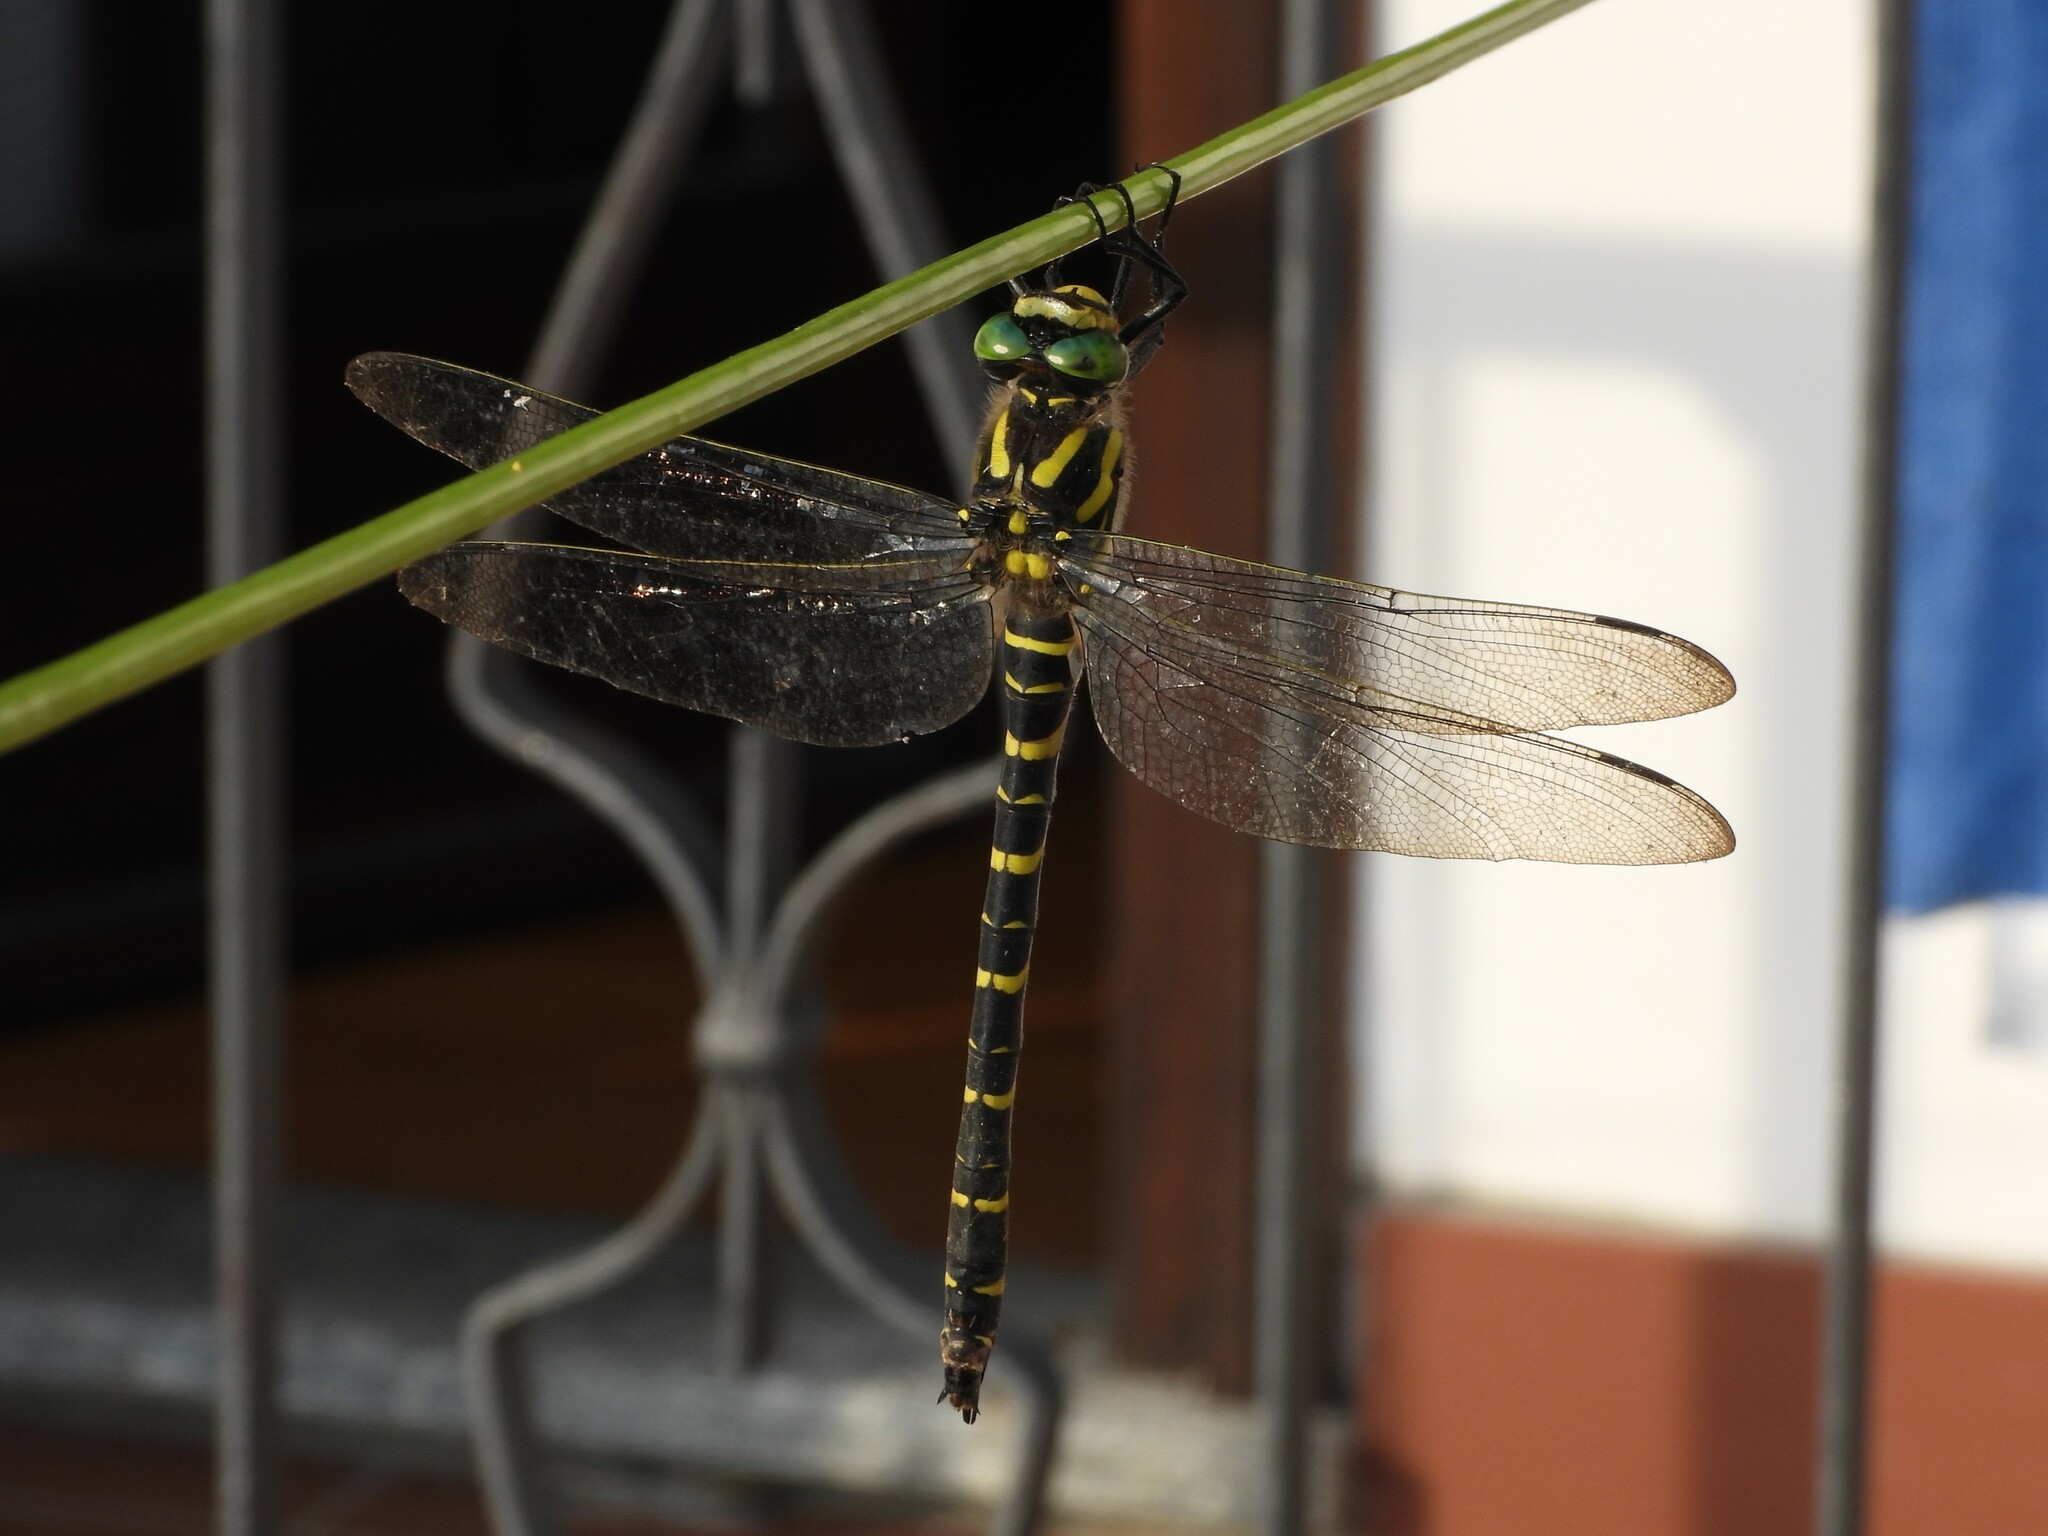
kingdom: Animalia
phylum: Arthropoda
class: Insecta
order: Odonata
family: Cordulegastridae
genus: Cordulegaster
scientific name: Cordulegaster boltonii
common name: Golden-ringed dragonfly
